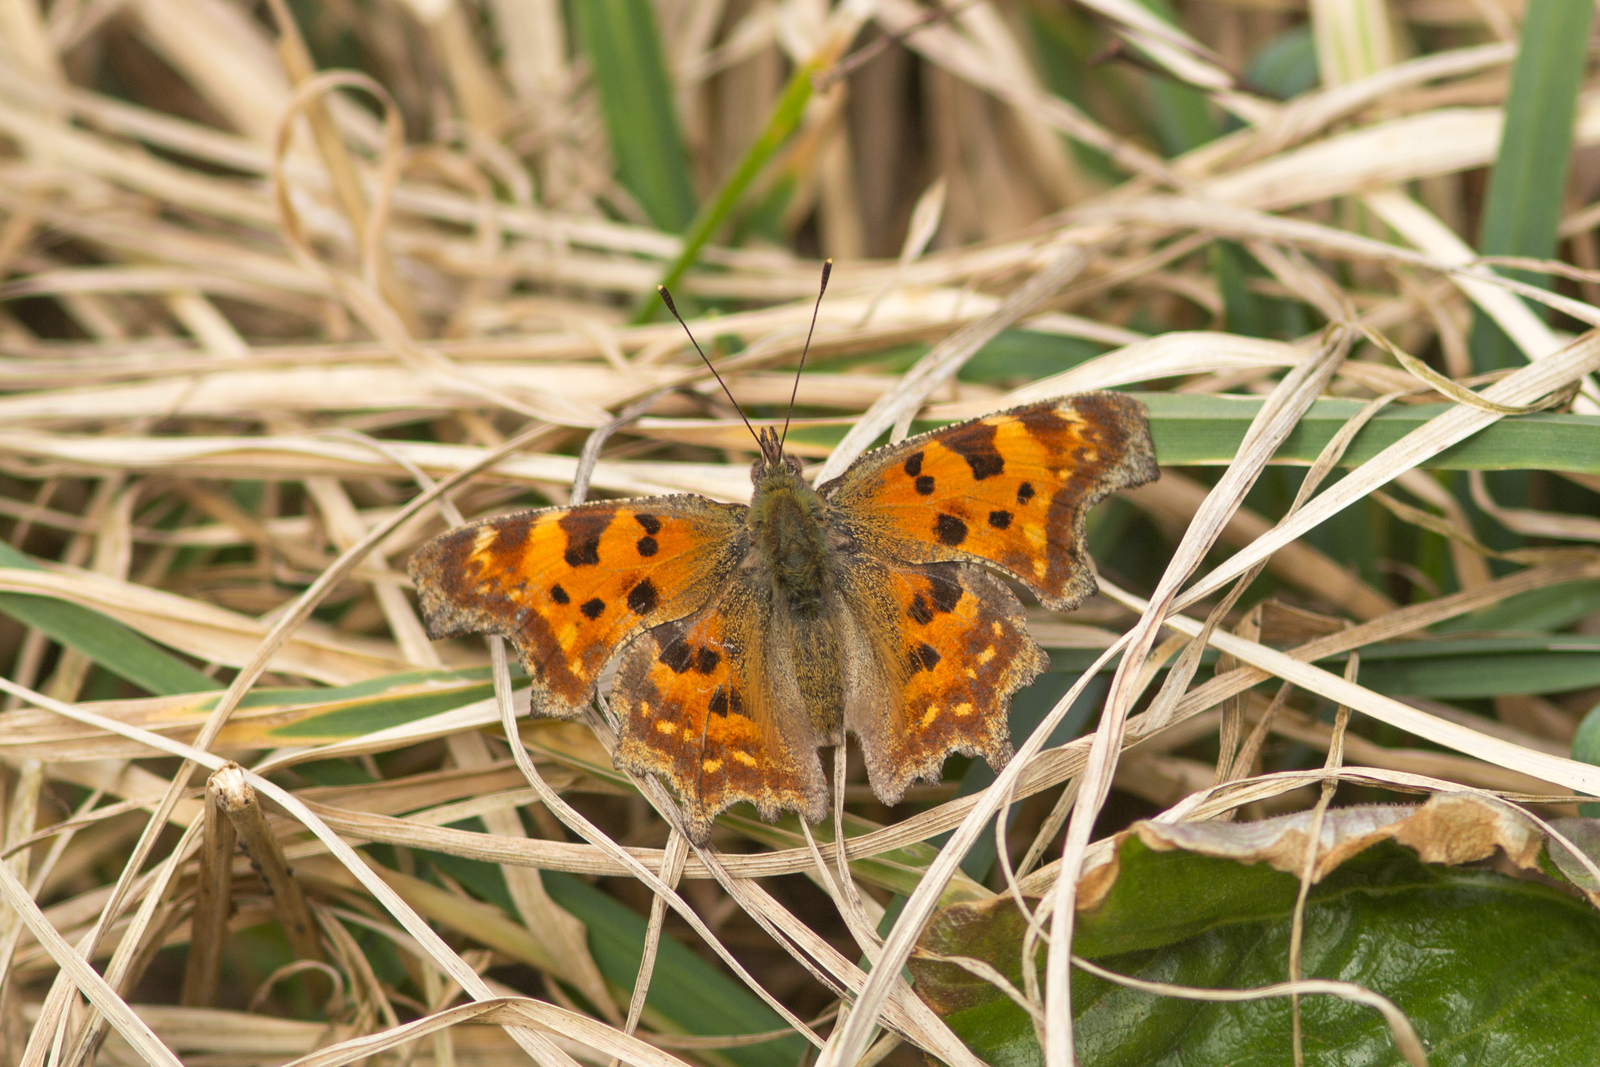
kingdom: Animalia
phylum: Arthropoda
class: Insecta
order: Lepidoptera
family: Nymphalidae
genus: Polygonia
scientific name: Polygonia c-album
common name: Comma
